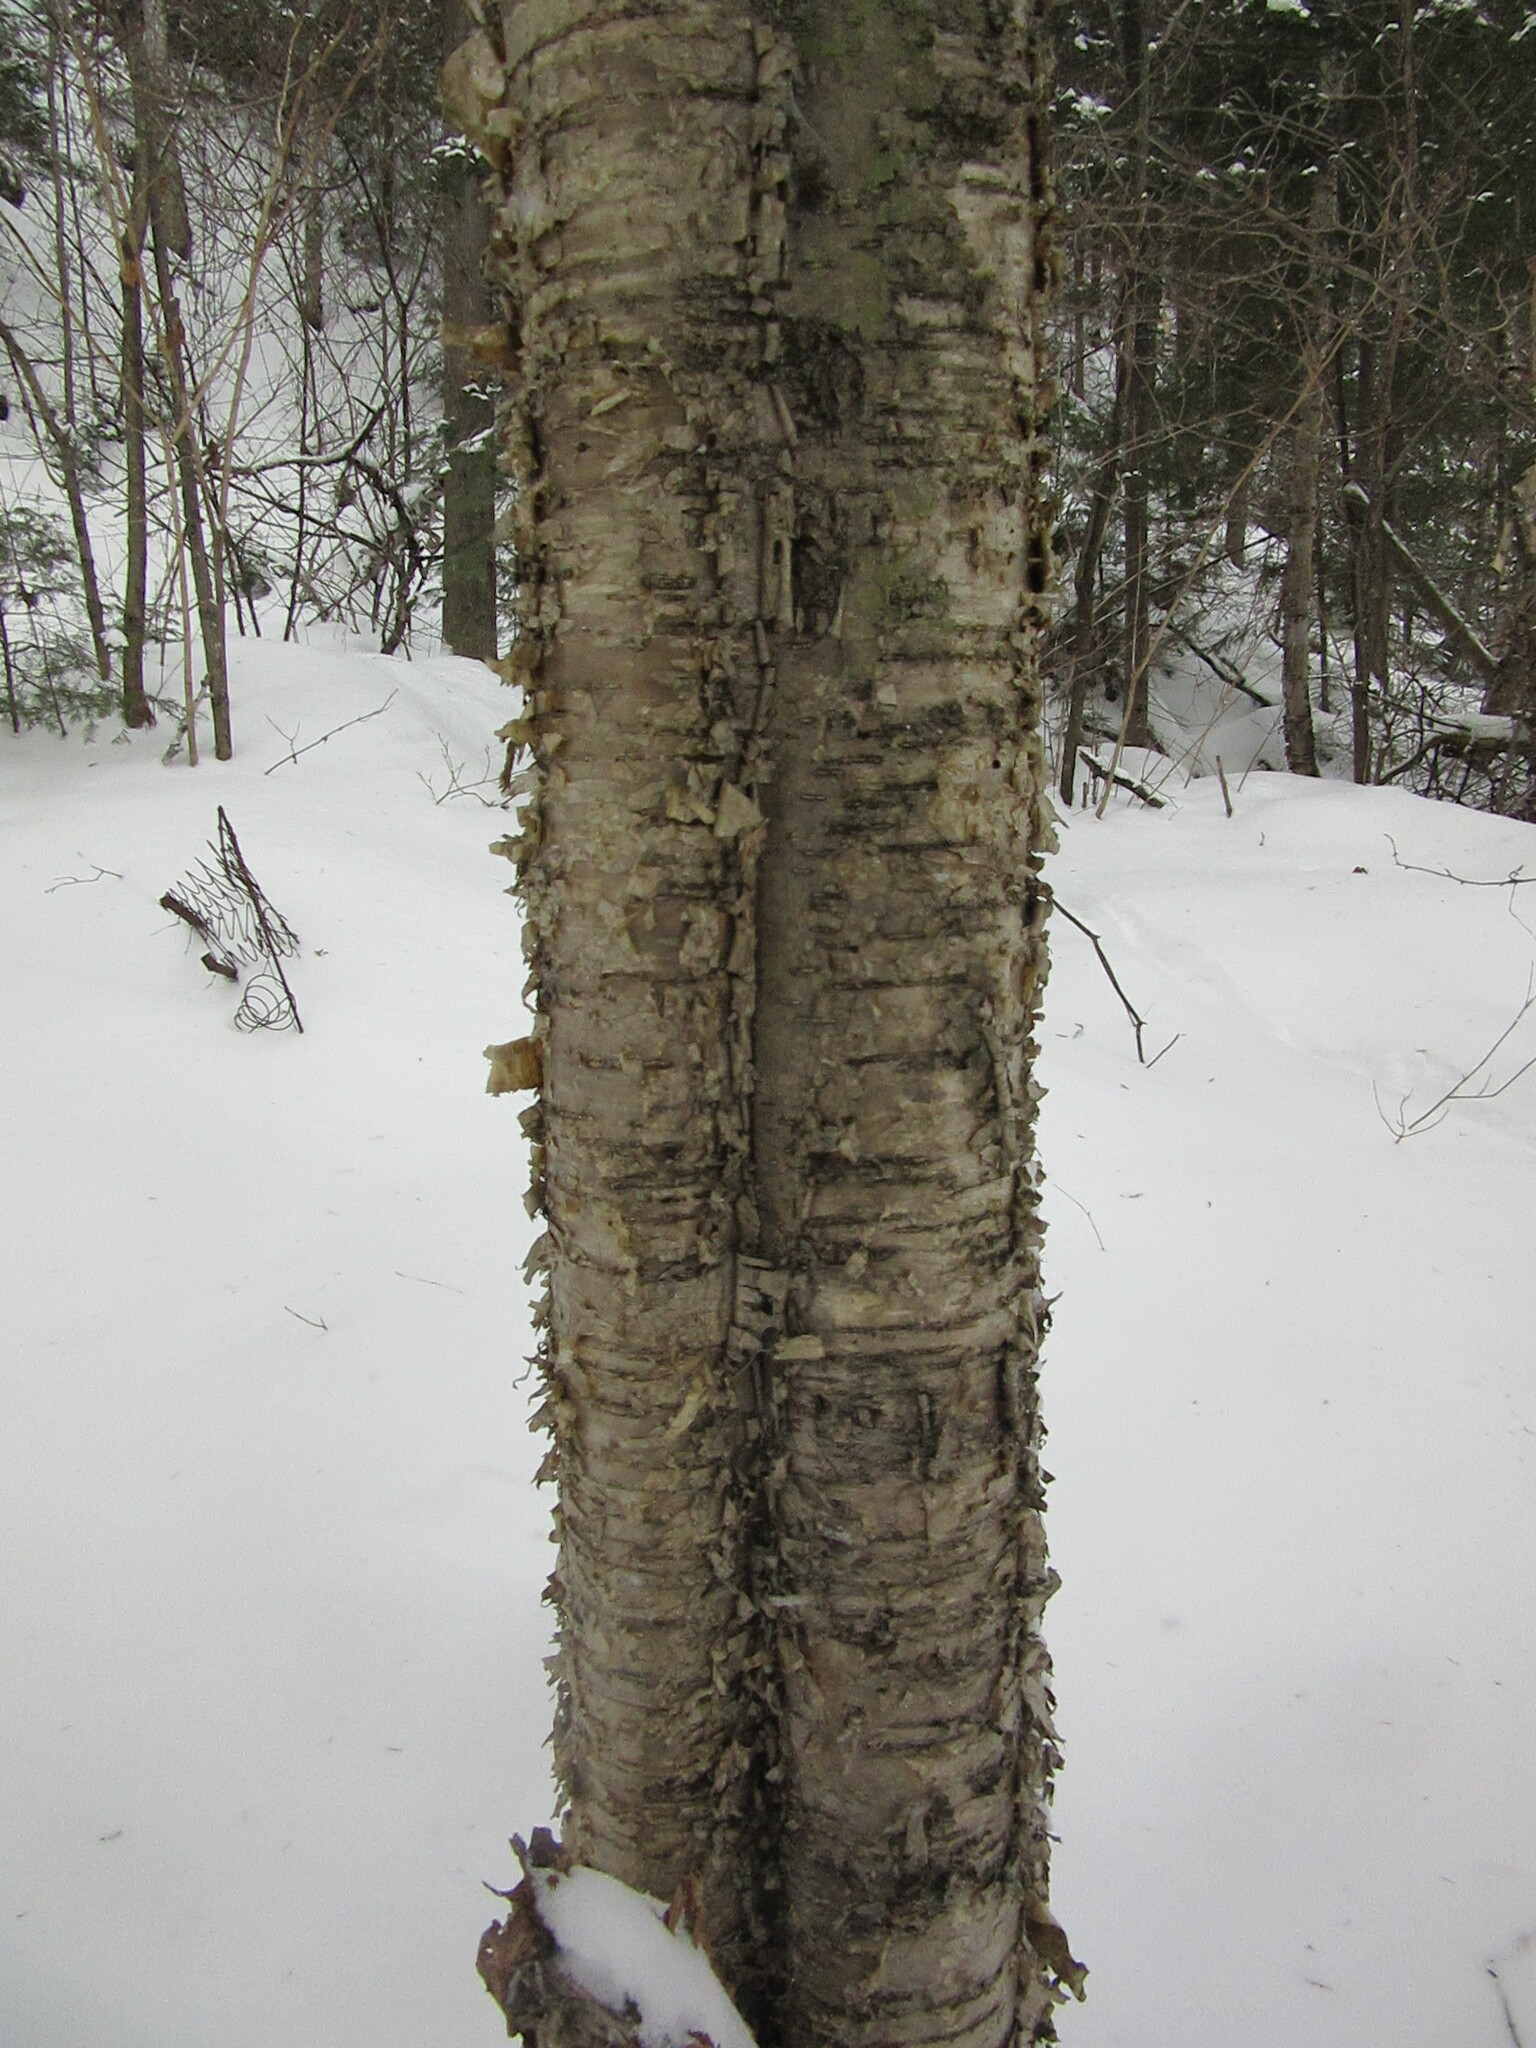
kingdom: Plantae
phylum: Tracheophyta
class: Magnoliopsida
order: Fagales
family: Betulaceae
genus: Betula
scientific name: Betula alleghaniensis
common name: Yellow birch
